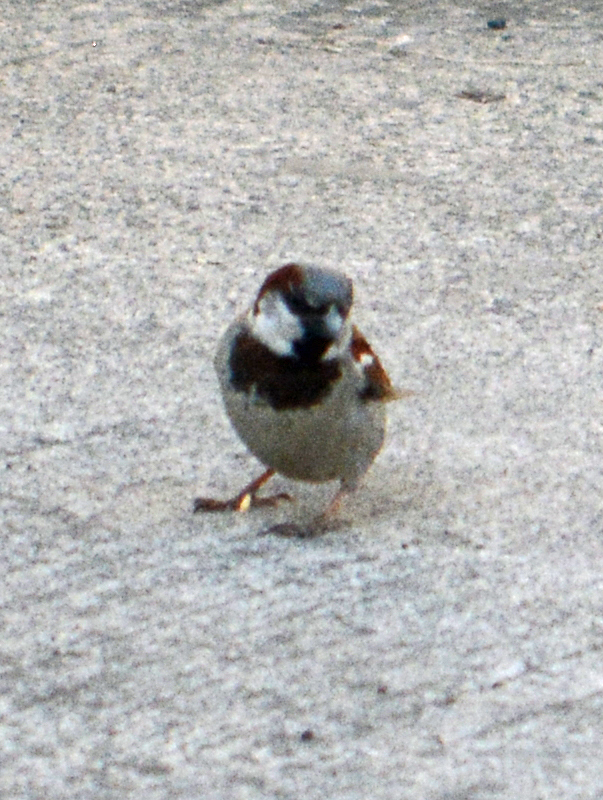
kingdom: Animalia
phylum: Chordata
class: Aves
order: Passeriformes
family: Passeridae
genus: Passer
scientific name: Passer domesticus
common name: House sparrow
